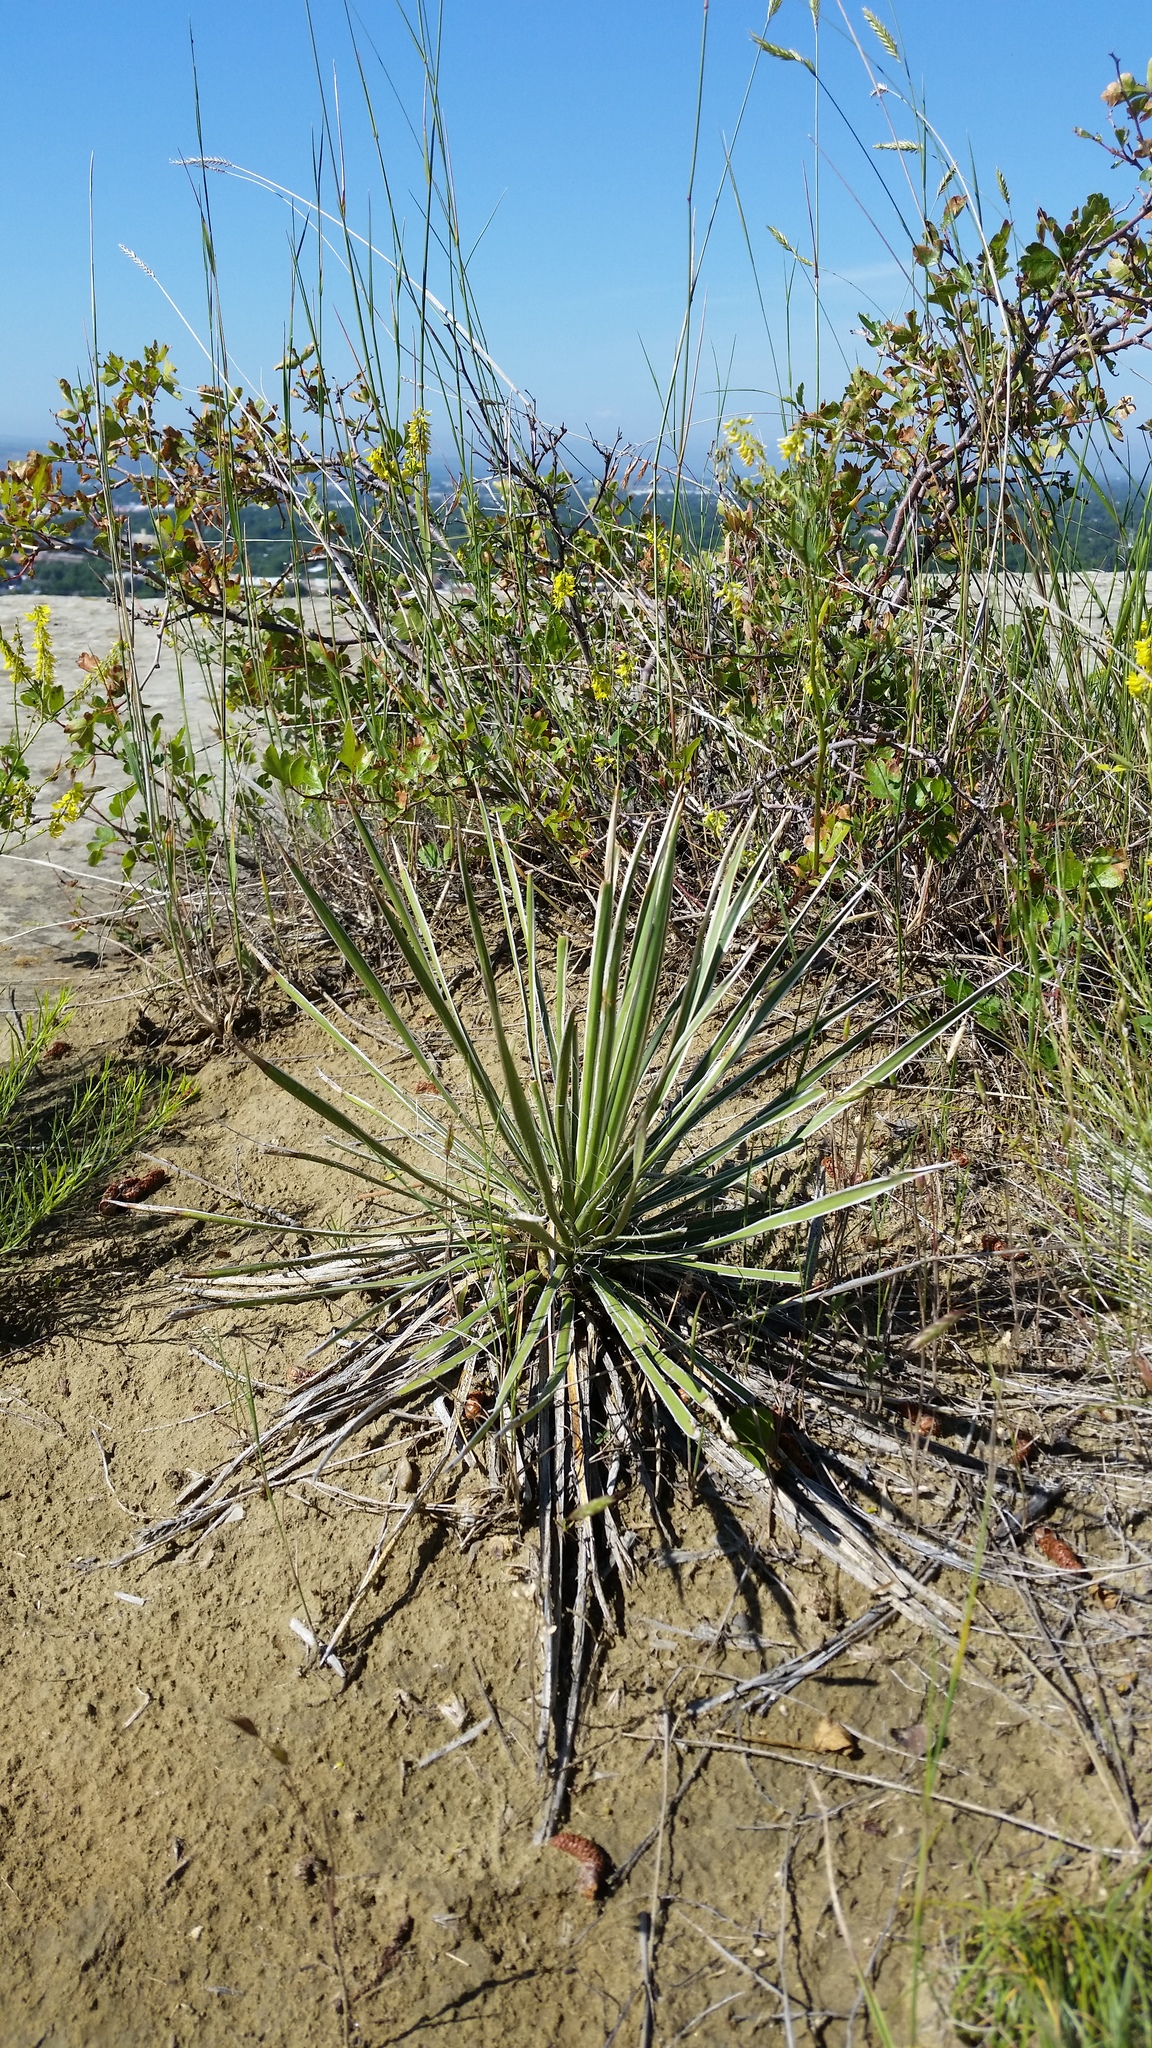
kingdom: Plantae
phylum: Tracheophyta
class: Liliopsida
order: Asparagales
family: Asparagaceae
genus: Yucca
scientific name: Yucca glauca
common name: Great plains yucca
